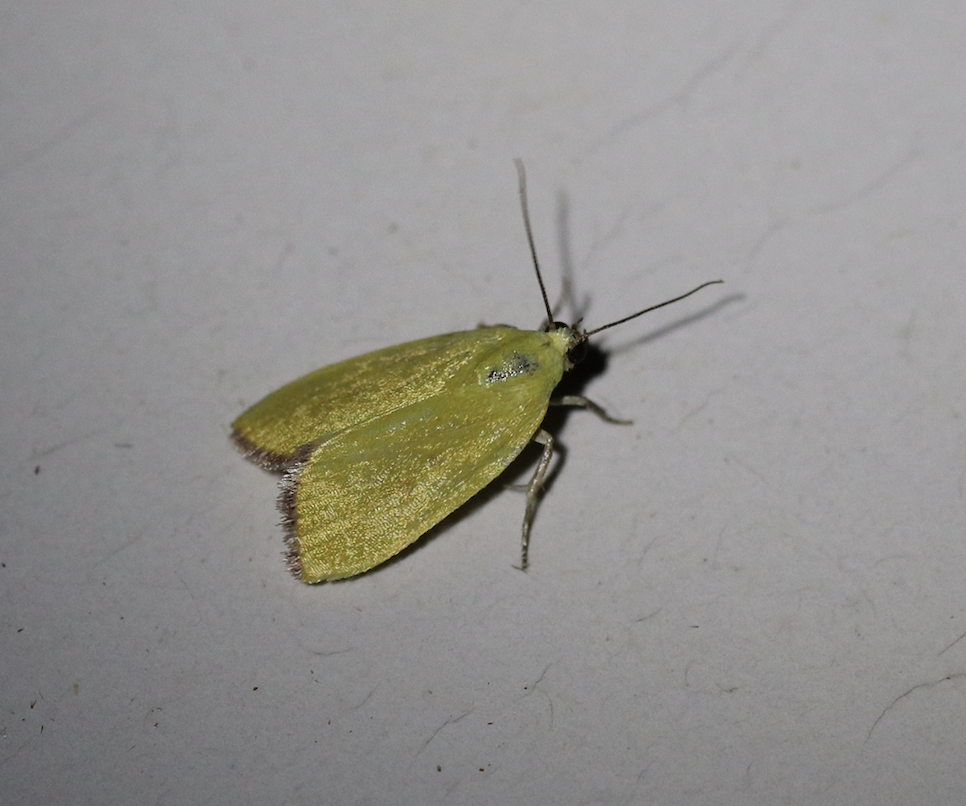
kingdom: Animalia
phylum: Arthropoda
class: Insecta
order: Lepidoptera
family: Nolidae
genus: Earias
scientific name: Earias roseifera
